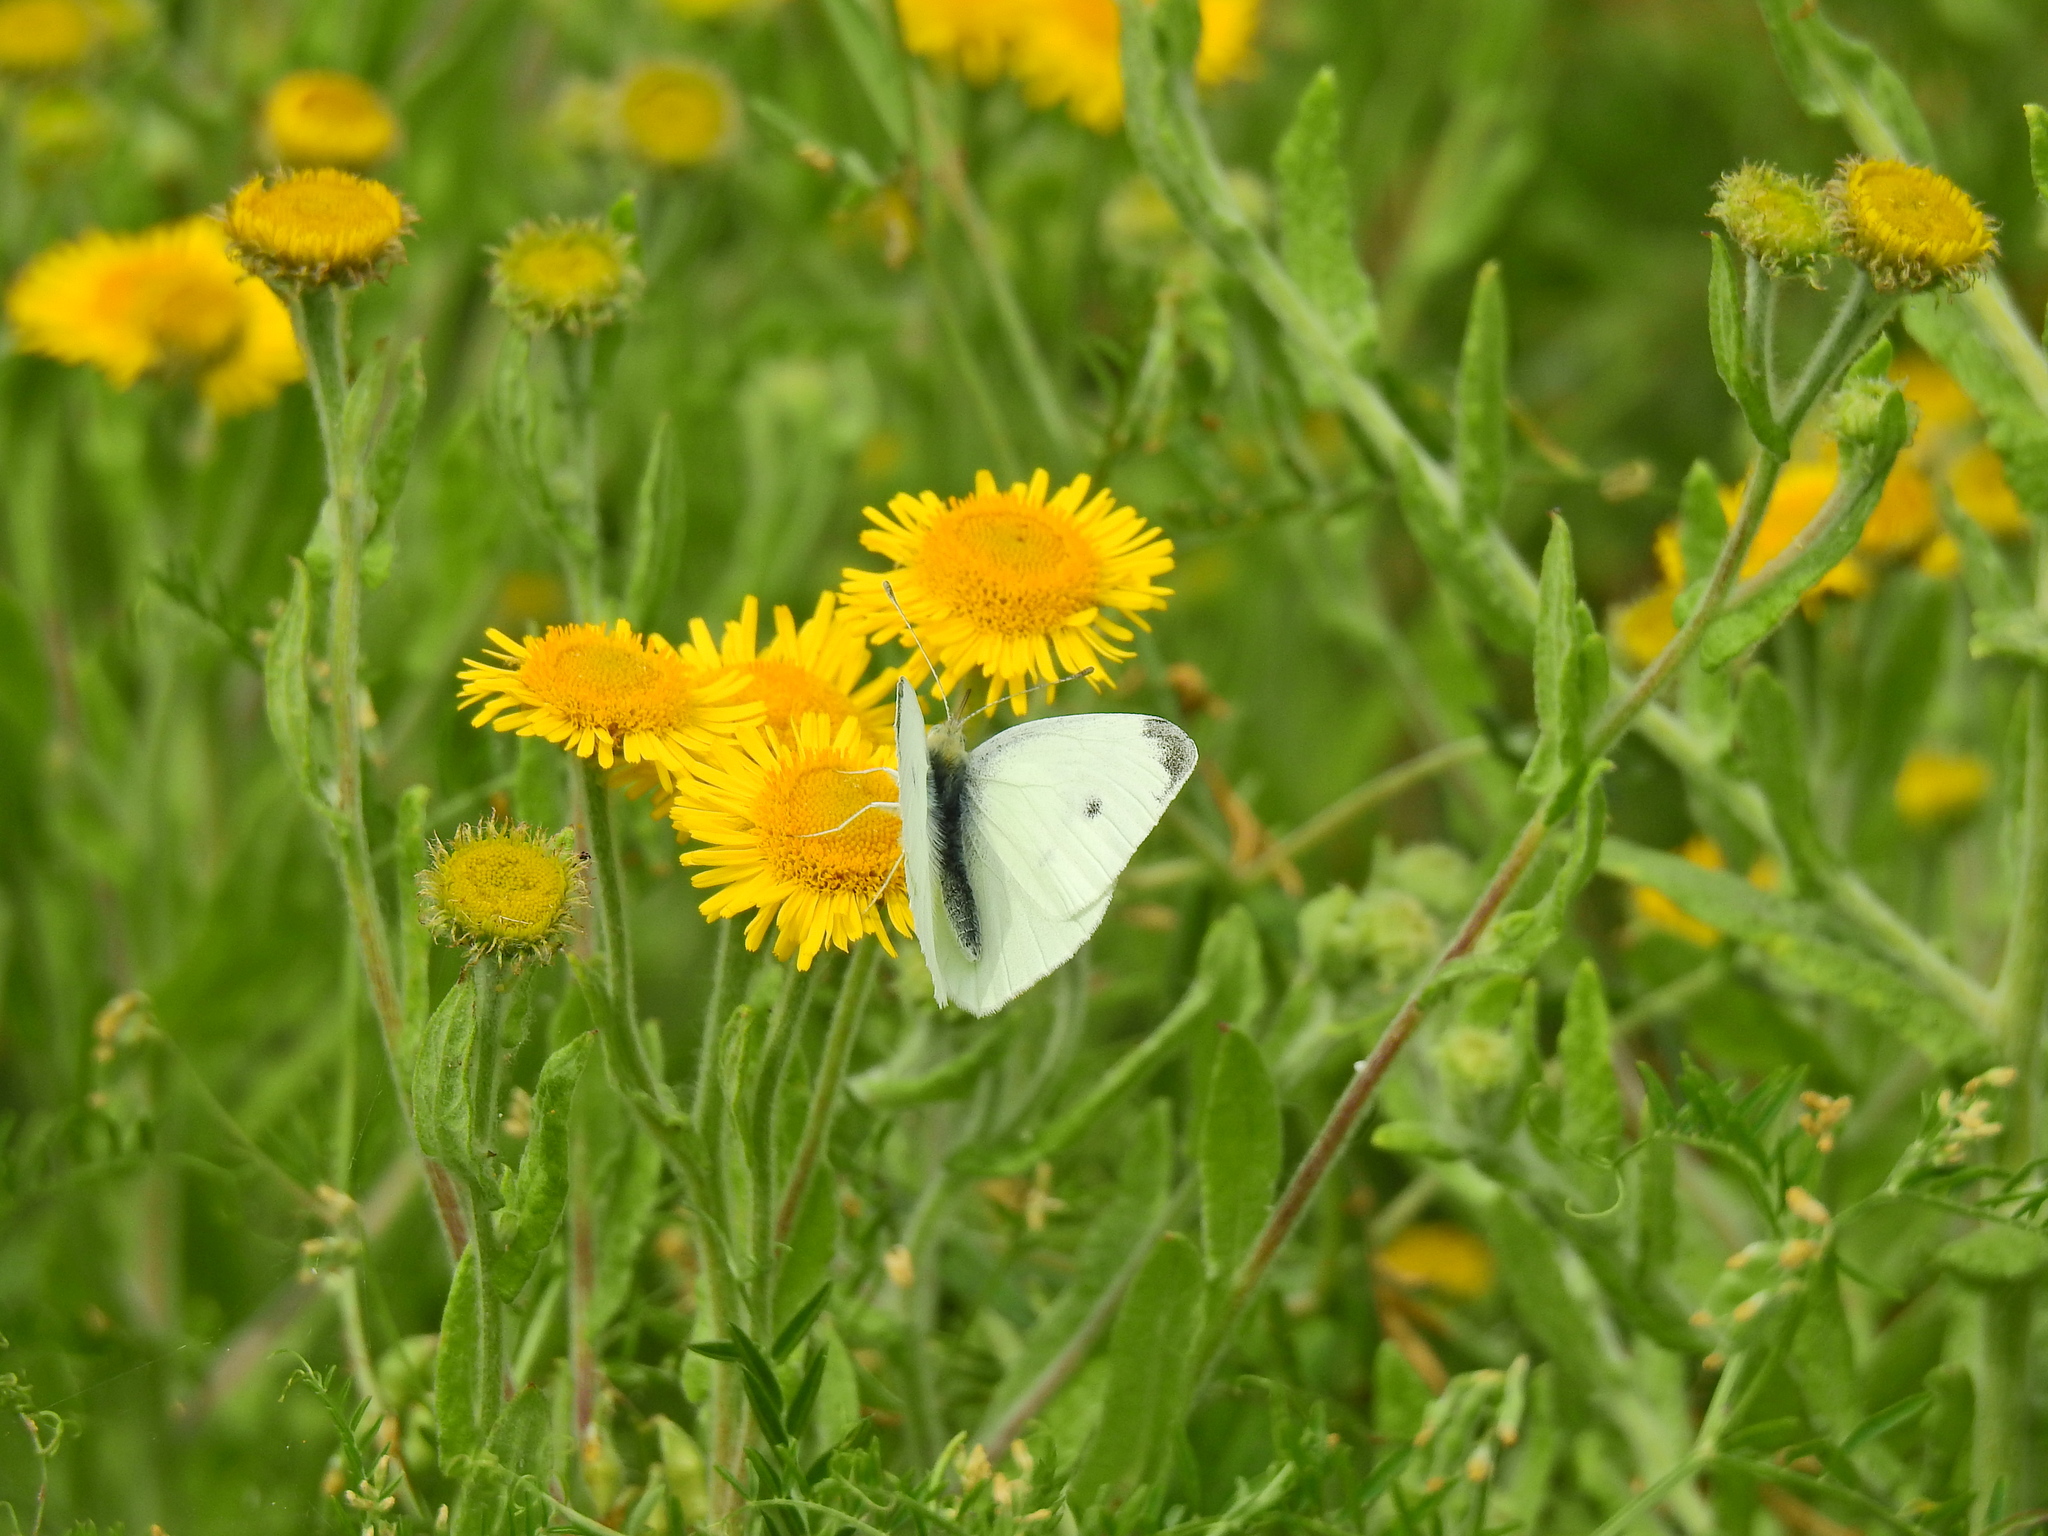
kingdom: Animalia
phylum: Arthropoda
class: Insecta
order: Lepidoptera
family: Pieridae
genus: Pieris
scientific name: Pieris rapae
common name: Small white
